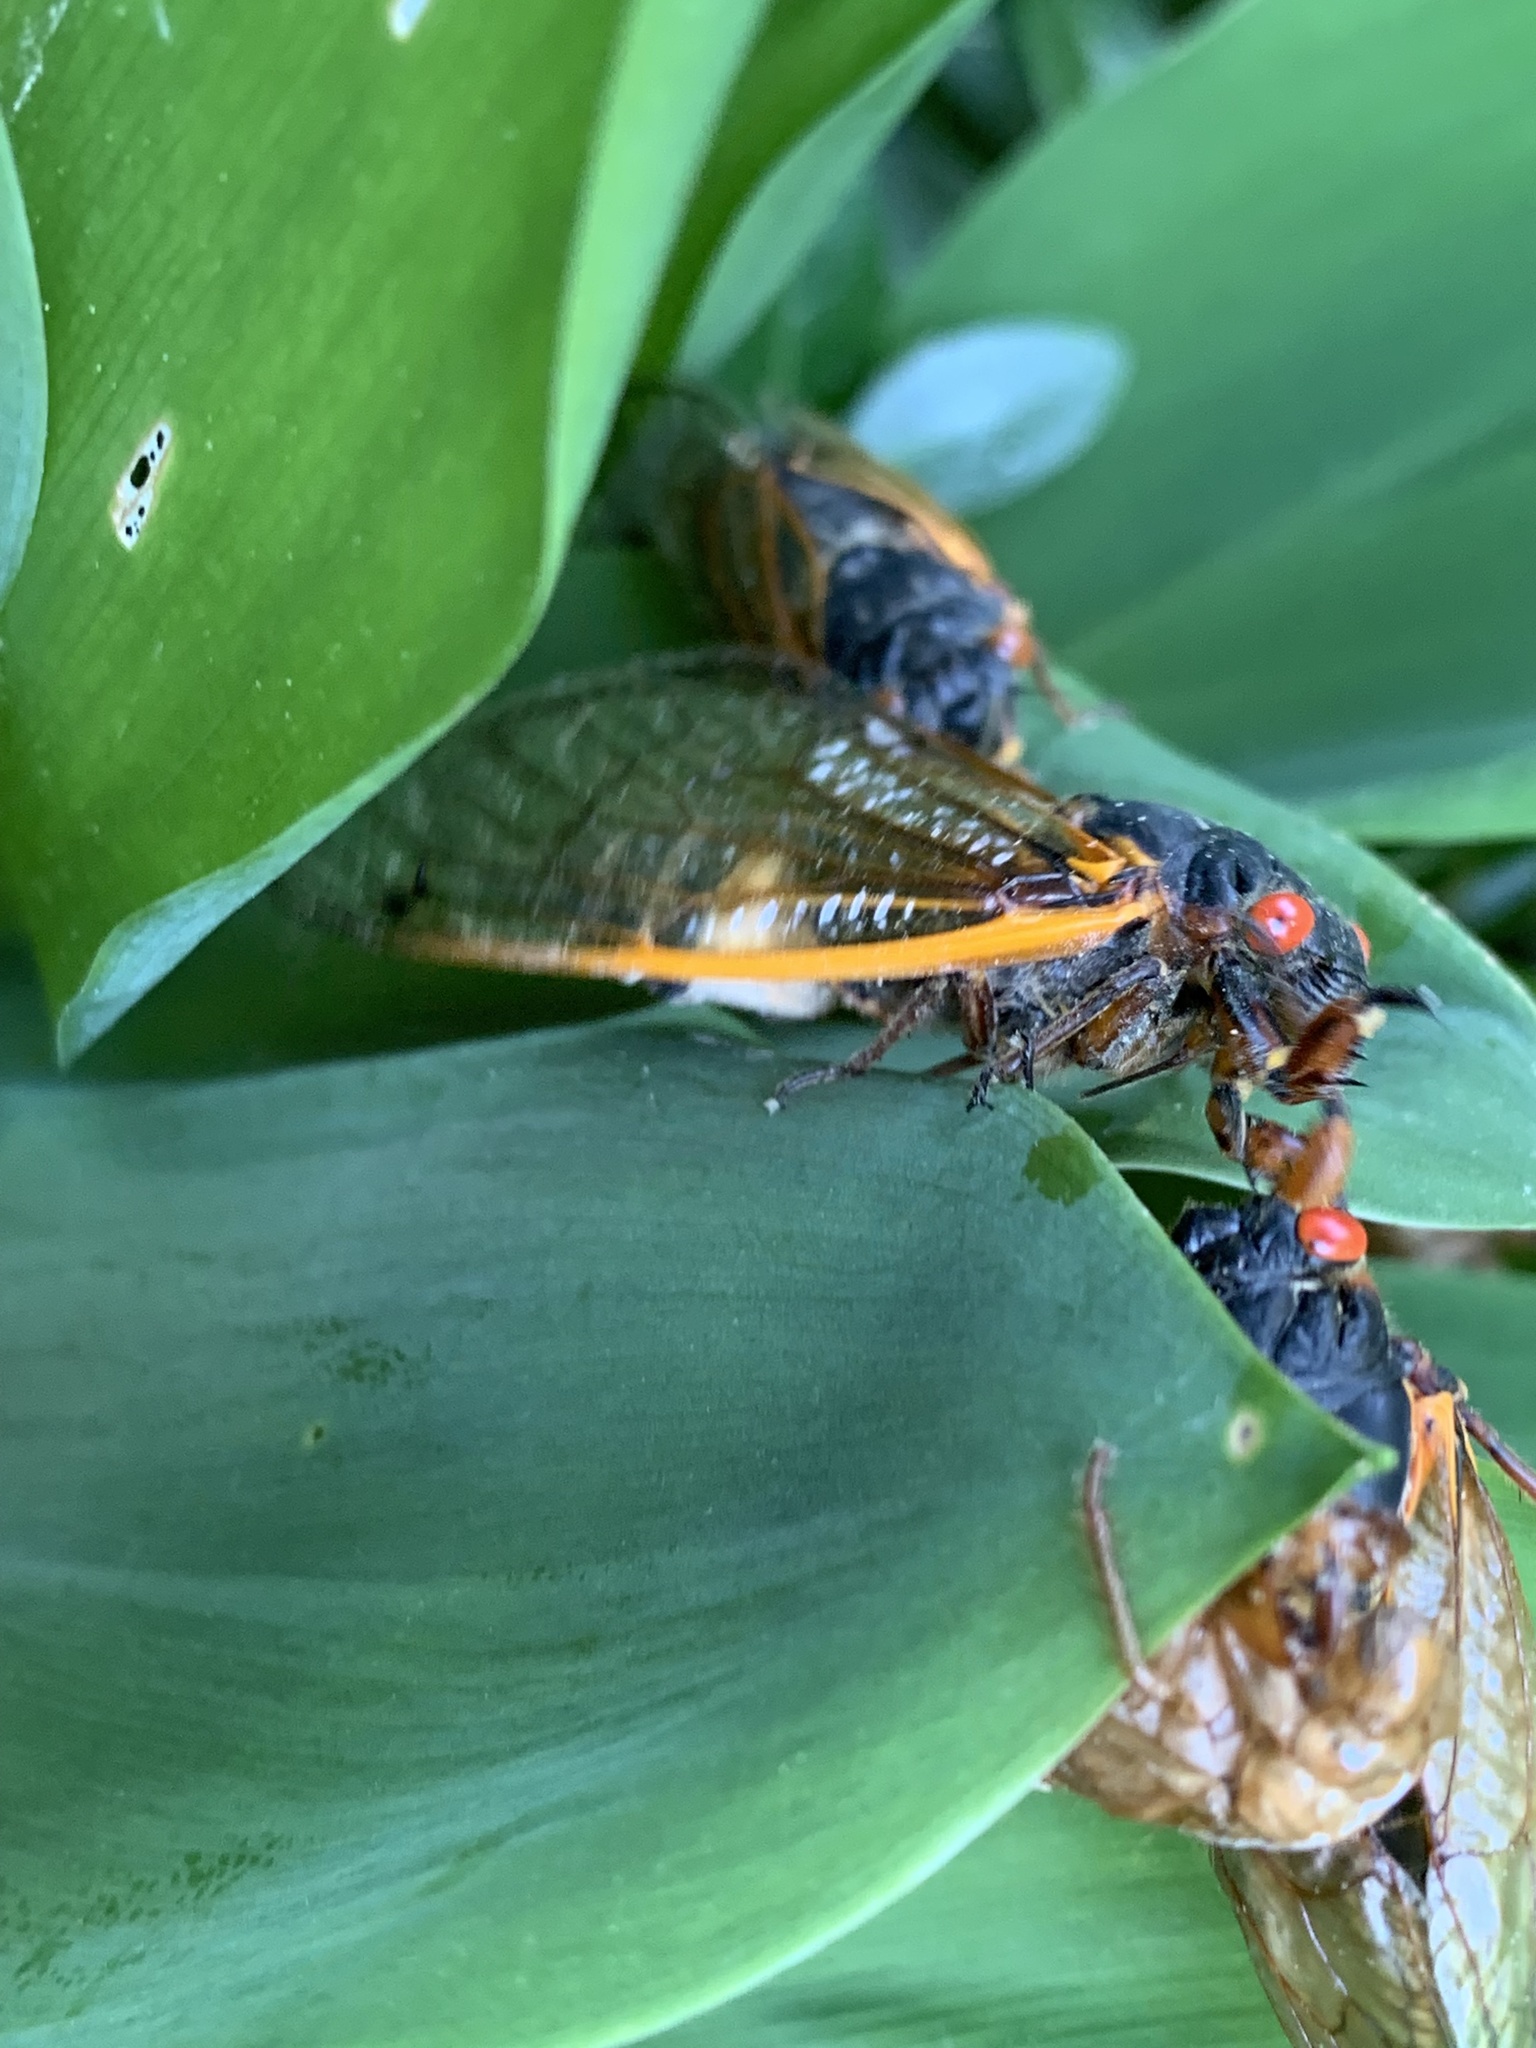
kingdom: Fungi
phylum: Entomophthoromycota
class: Entomophthoromycetes
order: Entomophthorales
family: Entomophthoraceae
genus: Massospora
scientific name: Massospora cicadina
